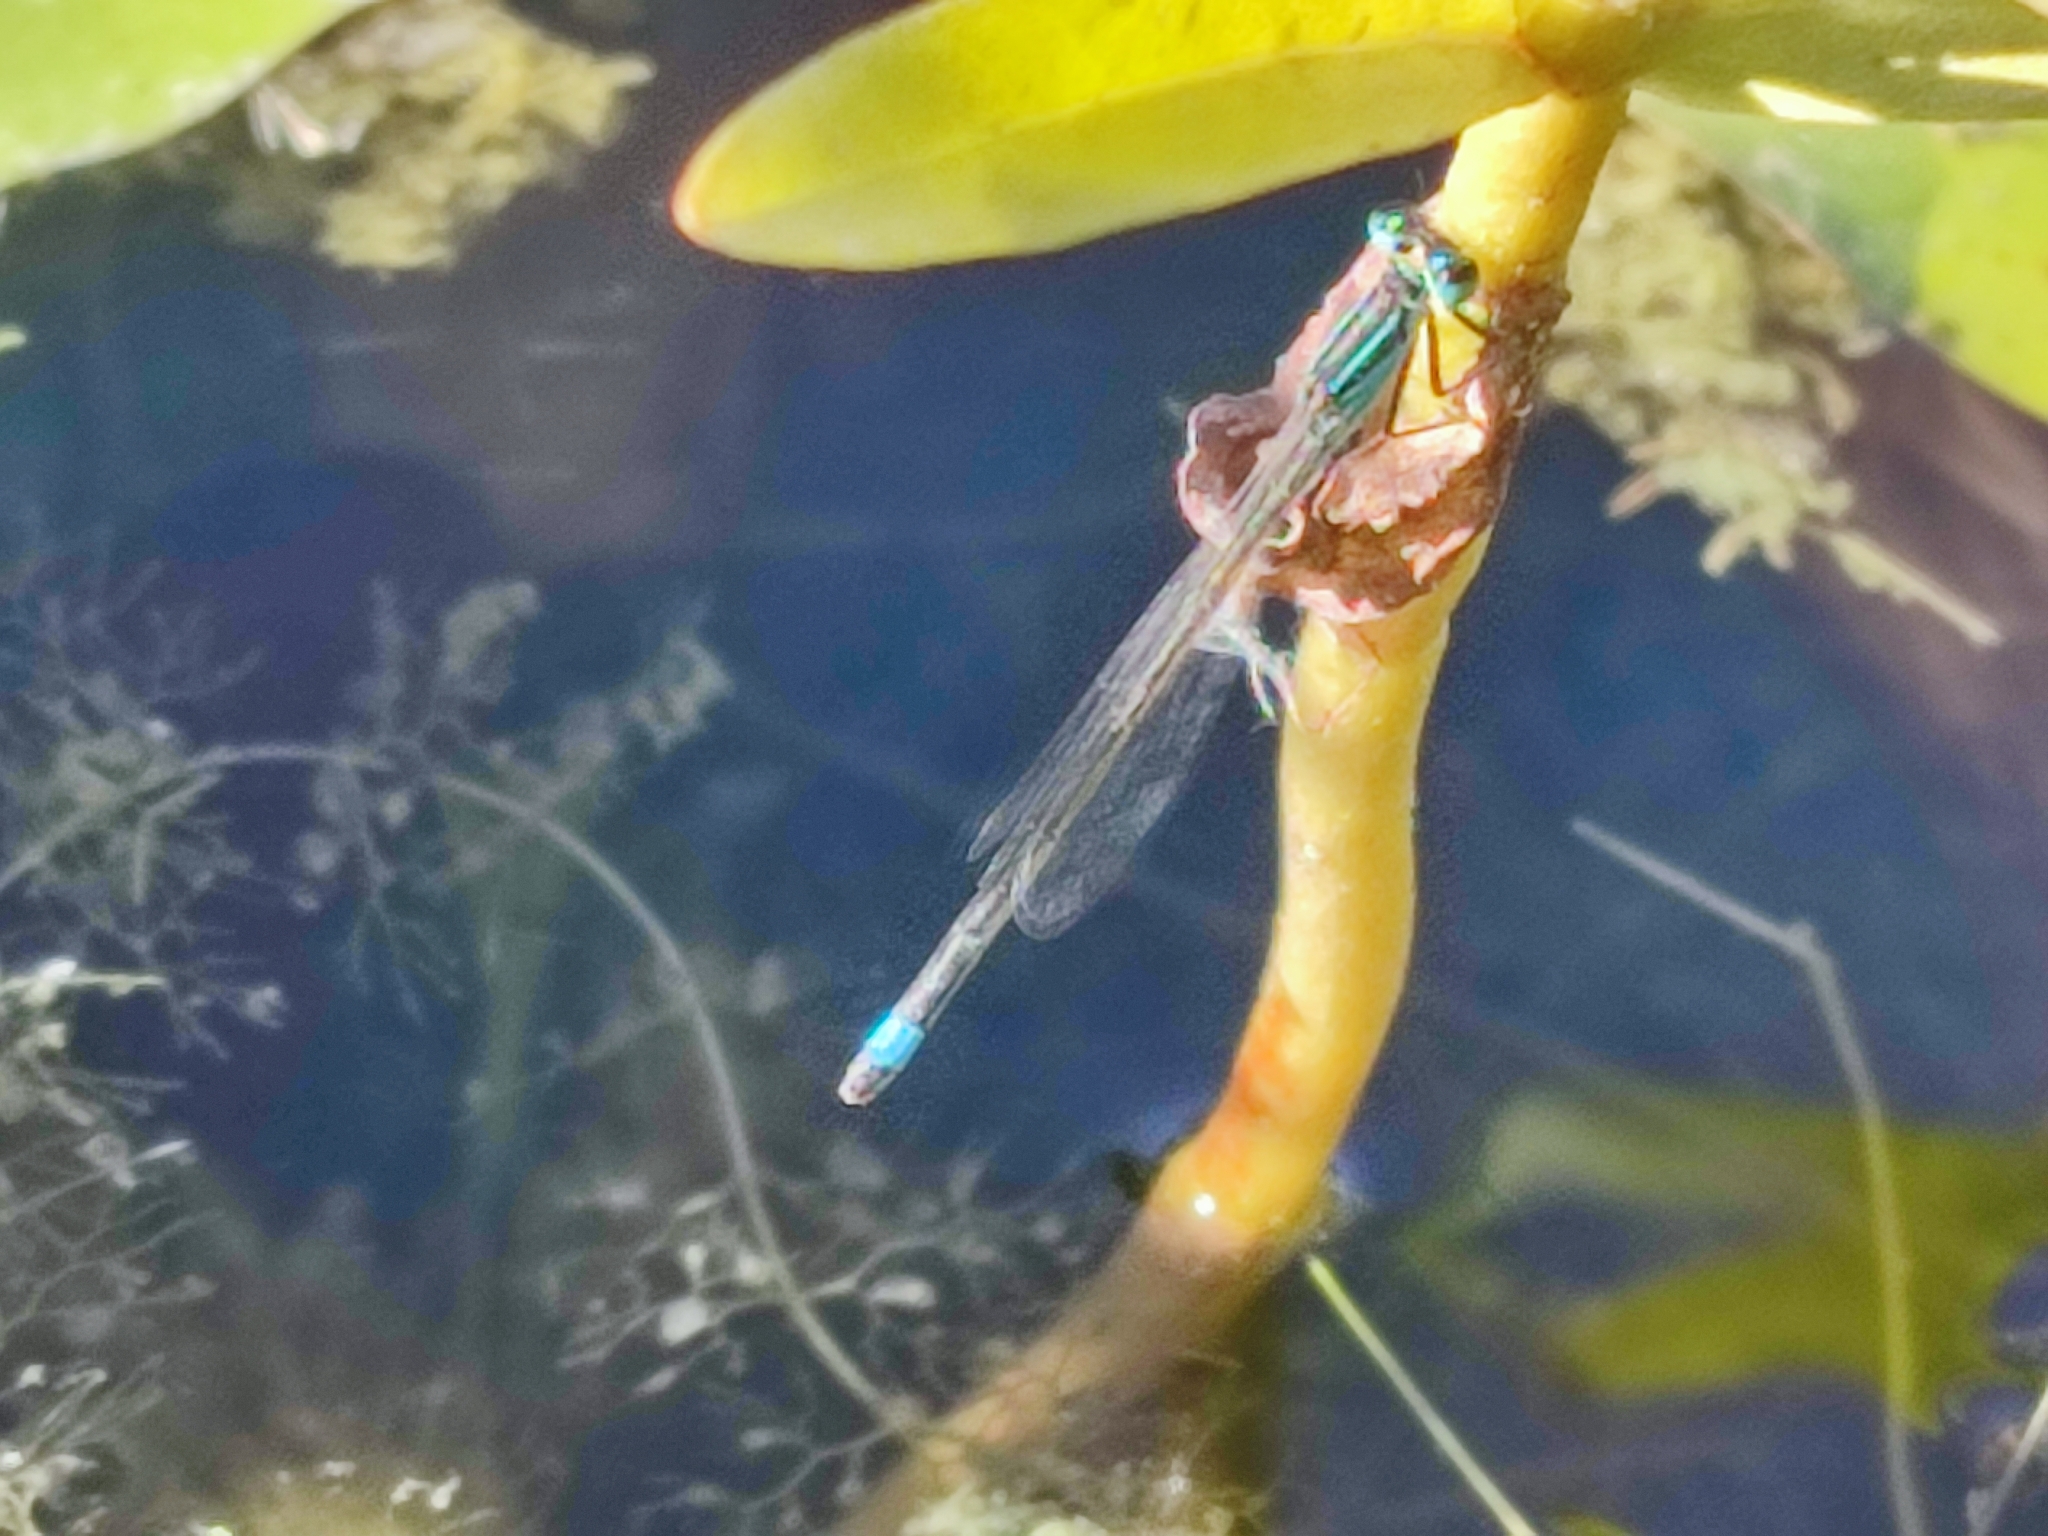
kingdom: Animalia
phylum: Arthropoda
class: Insecta
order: Odonata
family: Coenagrionidae
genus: Ischnura
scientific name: Ischnura elegans
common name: Blue-tailed damselfly
